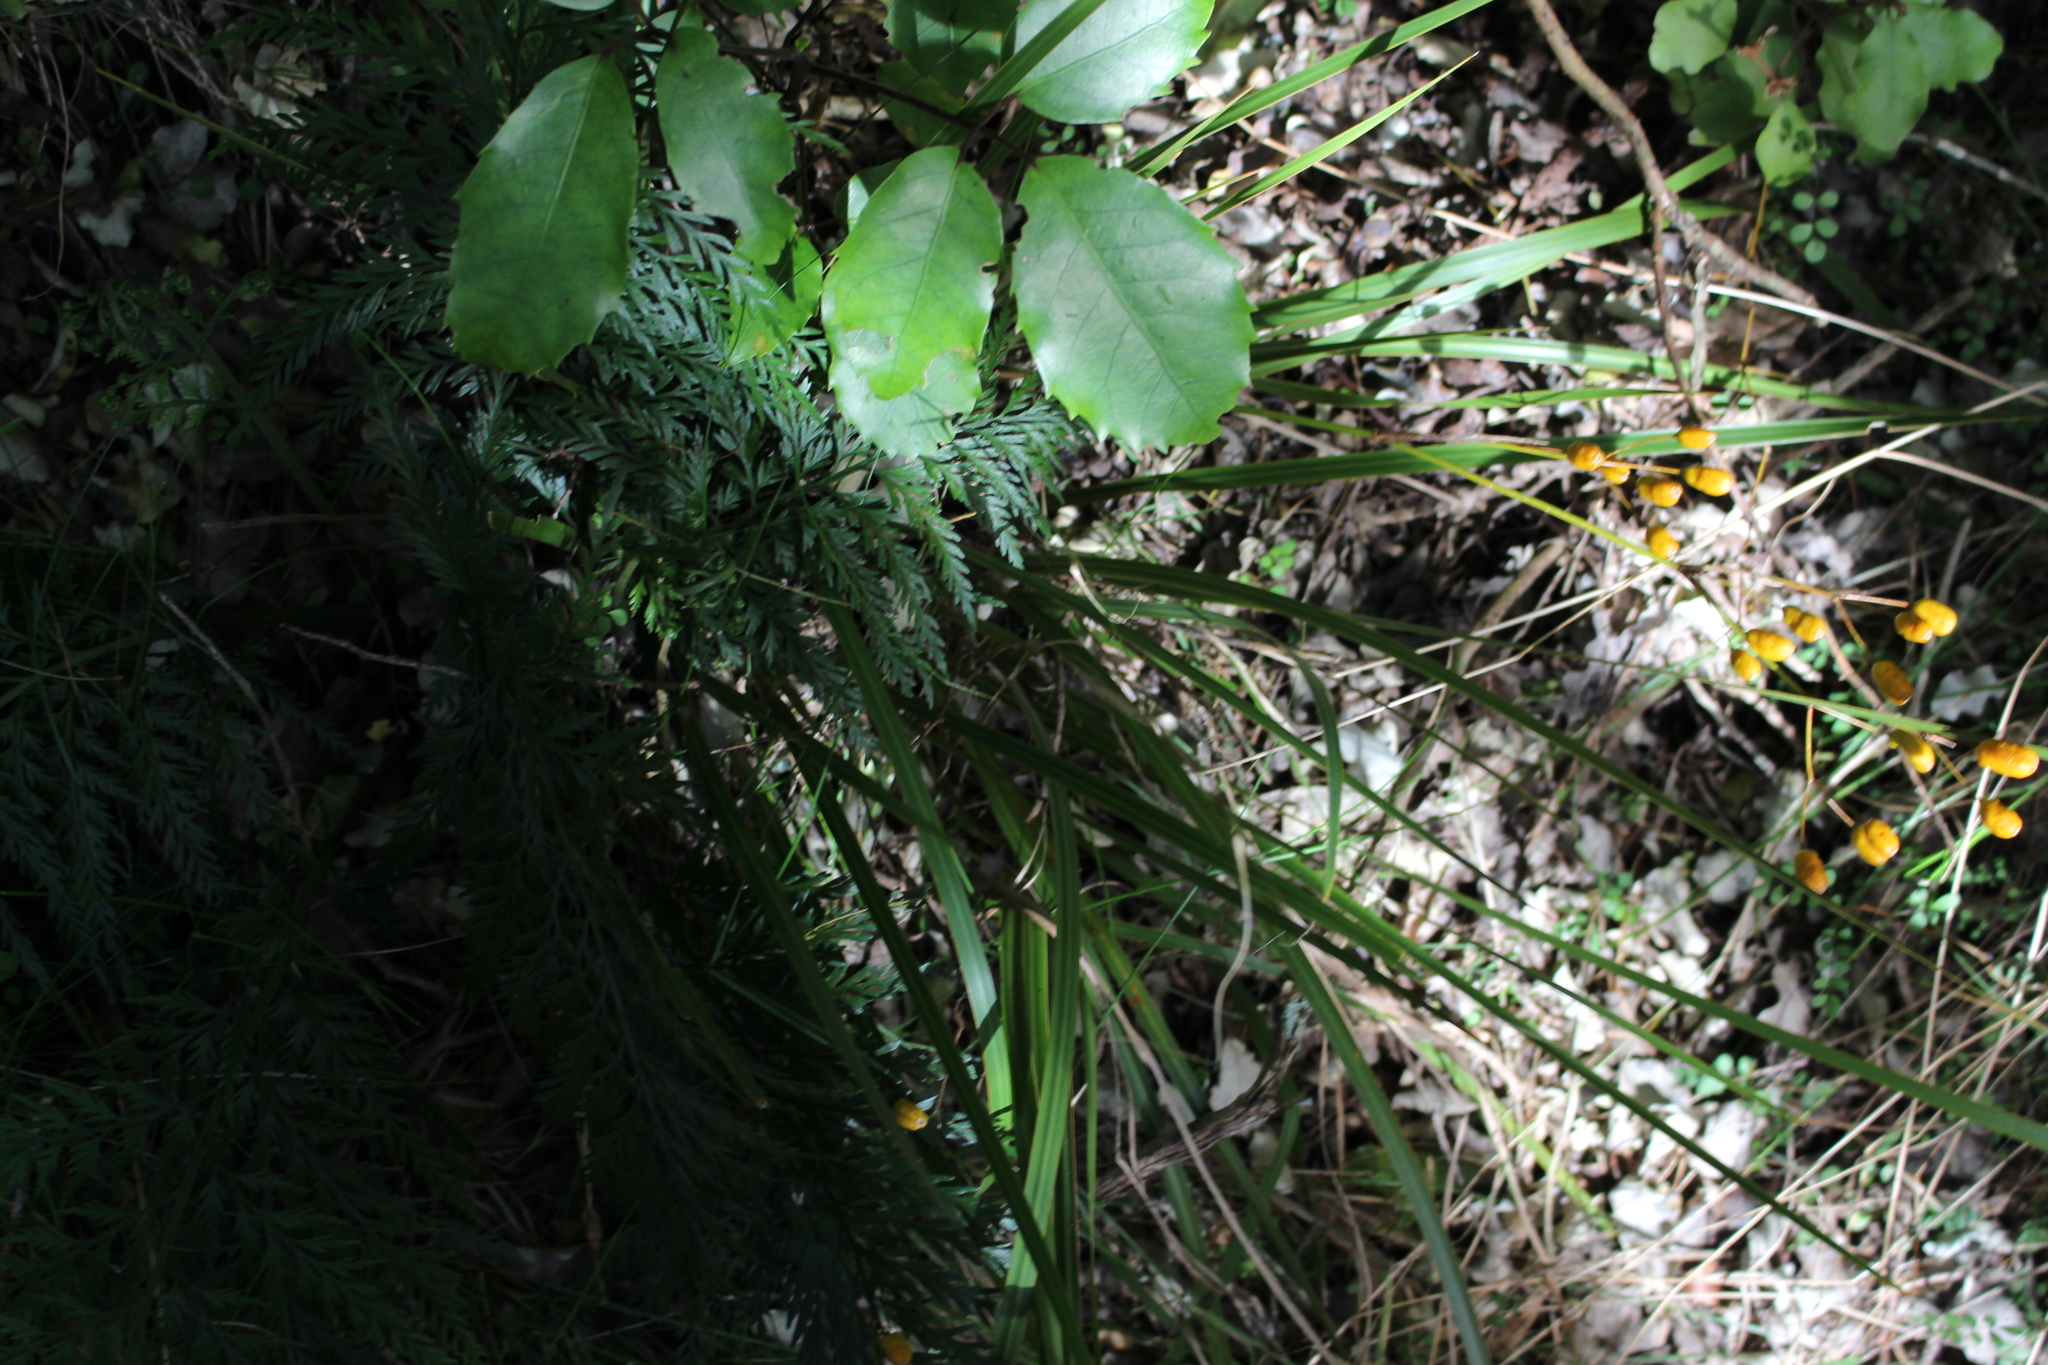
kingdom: Plantae
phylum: Tracheophyta
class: Liliopsida
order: Asparagales
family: Iridaceae
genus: Libertia
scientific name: Libertia ixioides
